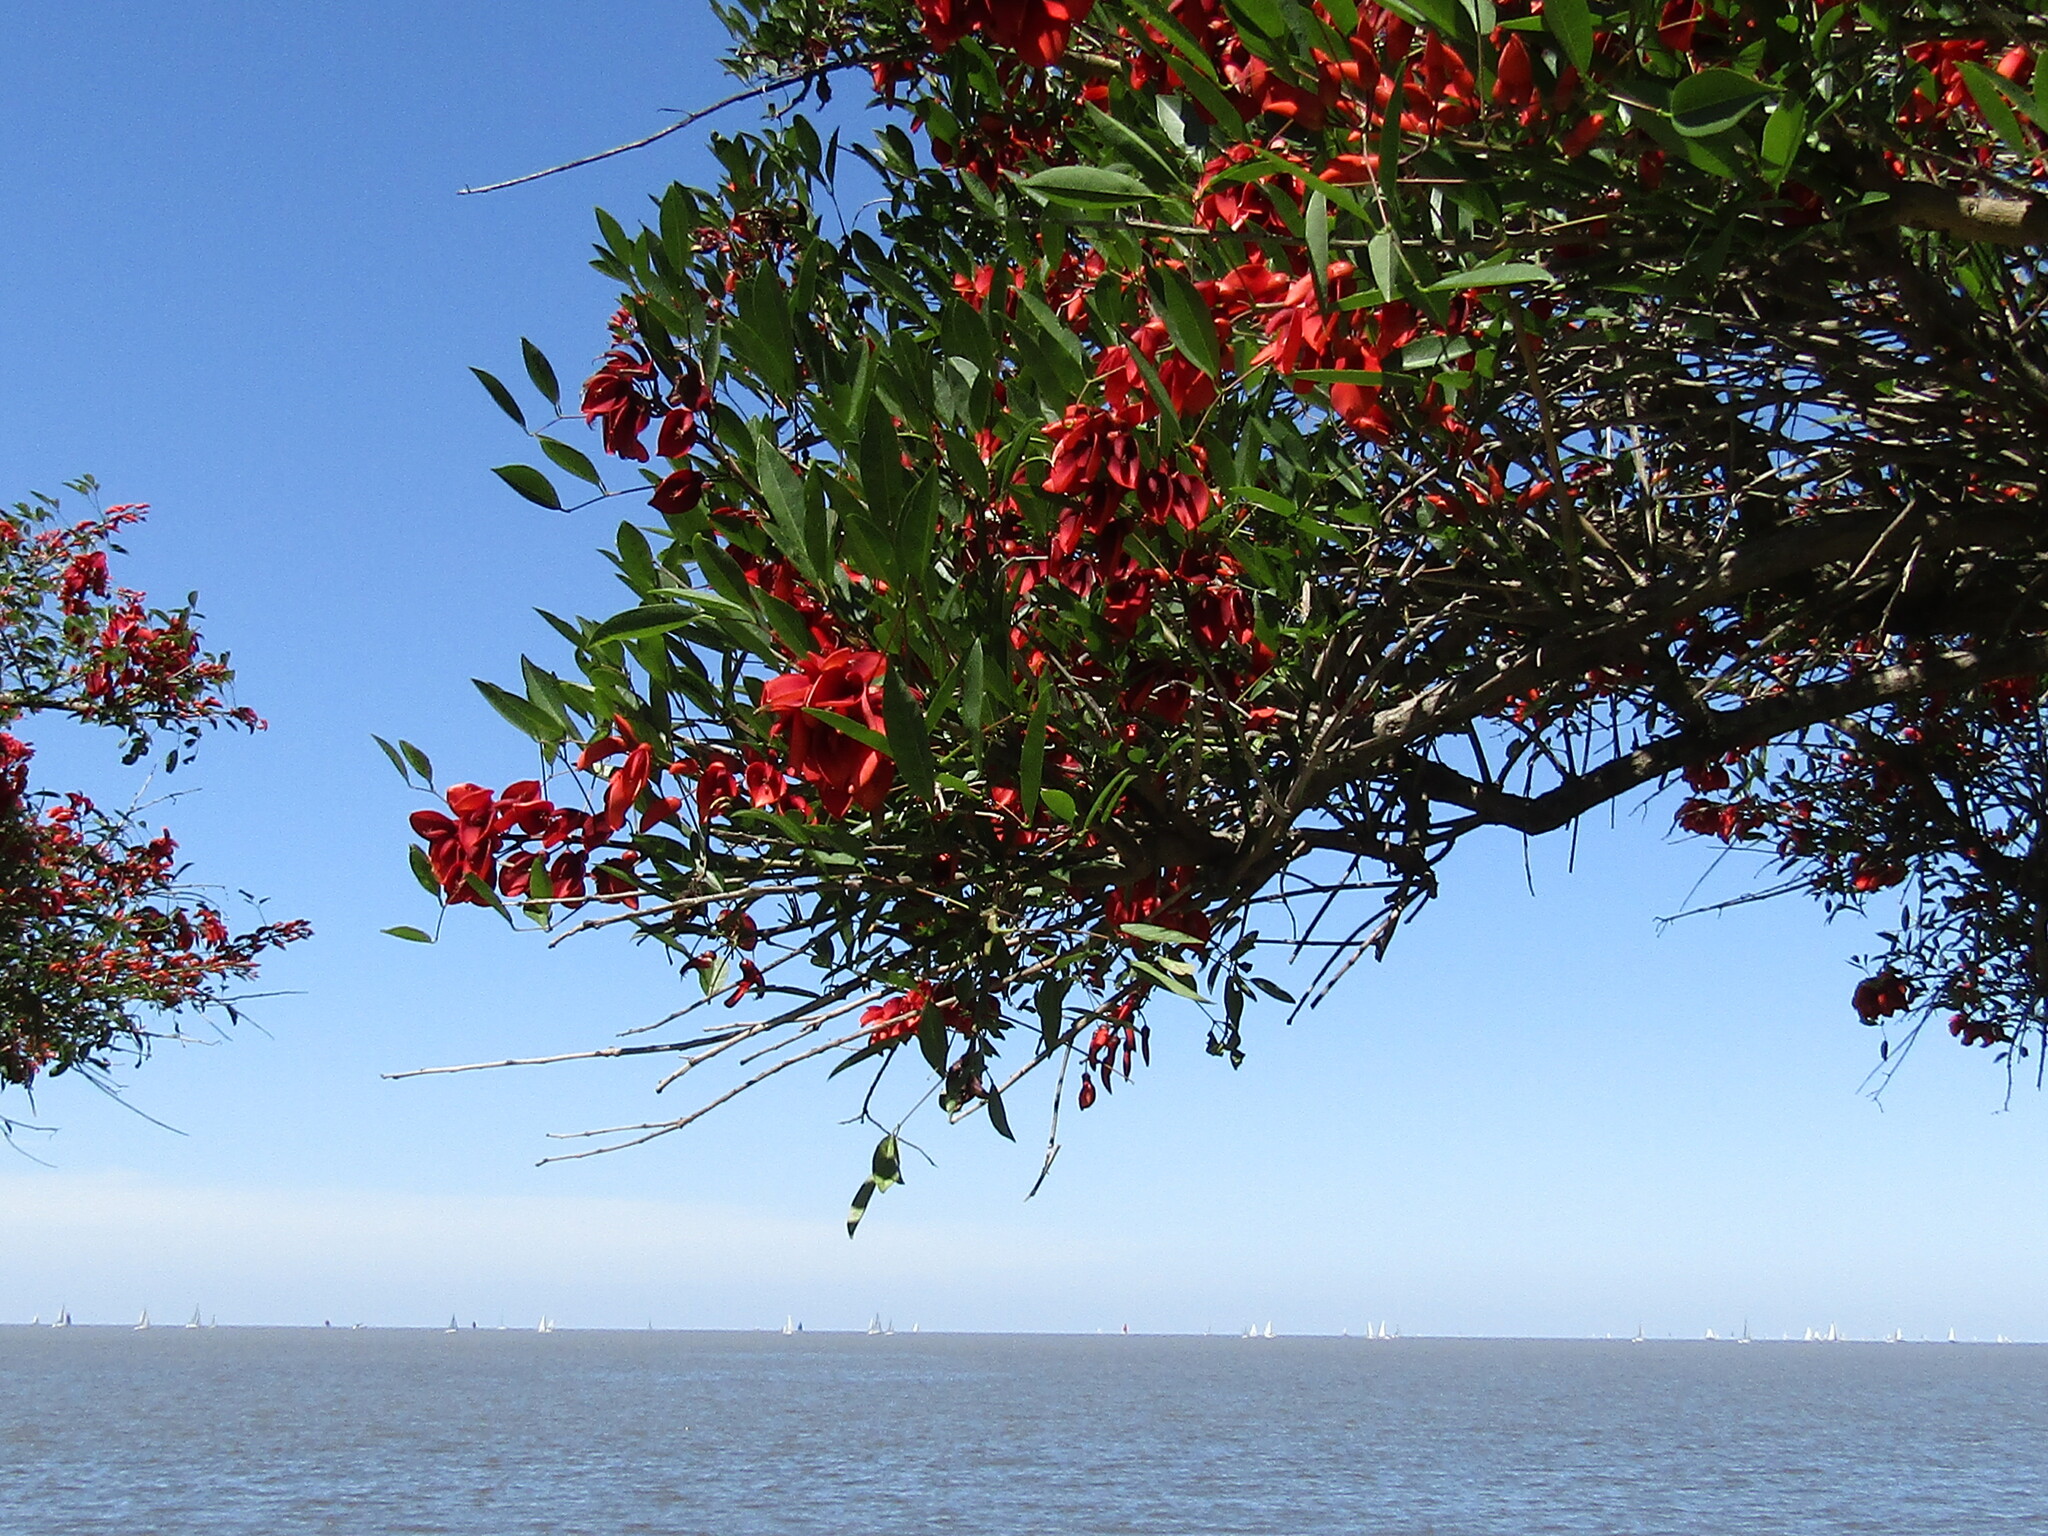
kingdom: Plantae
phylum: Tracheophyta
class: Magnoliopsida
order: Fabales
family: Fabaceae
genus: Erythrina
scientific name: Erythrina crista-galli
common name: Cockspur coral tree
